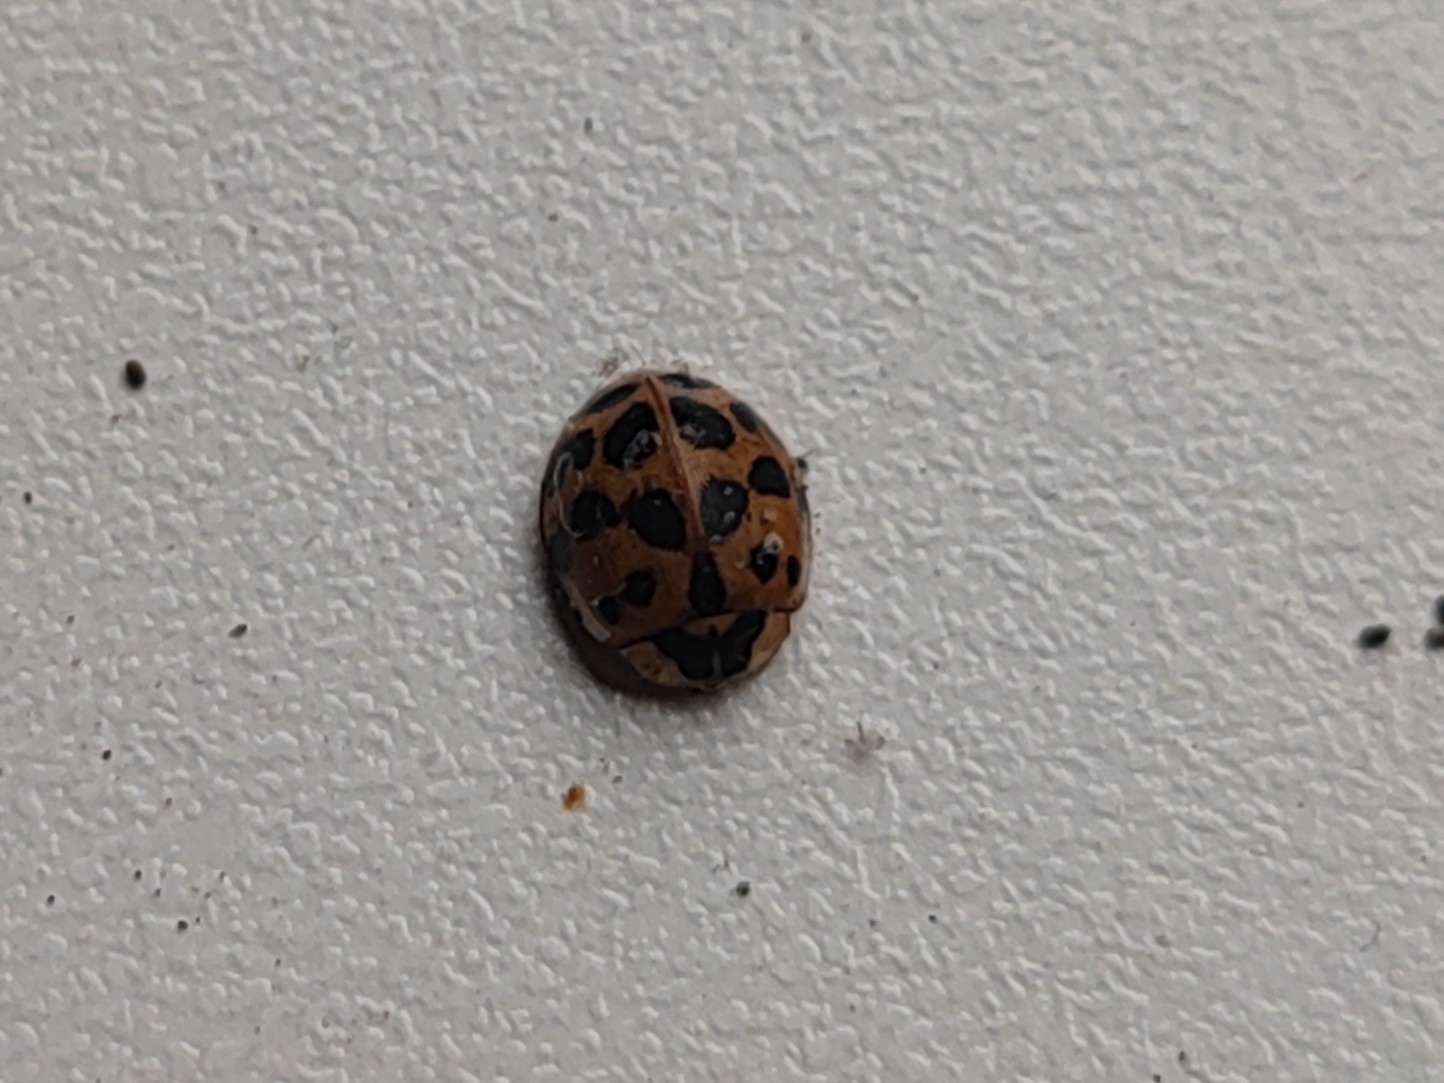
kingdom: Animalia
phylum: Arthropoda
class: Insecta
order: Coleoptera
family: Coccinellidae
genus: Harmonia
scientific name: Harmonia axyridis
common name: Harlequin ladybird
